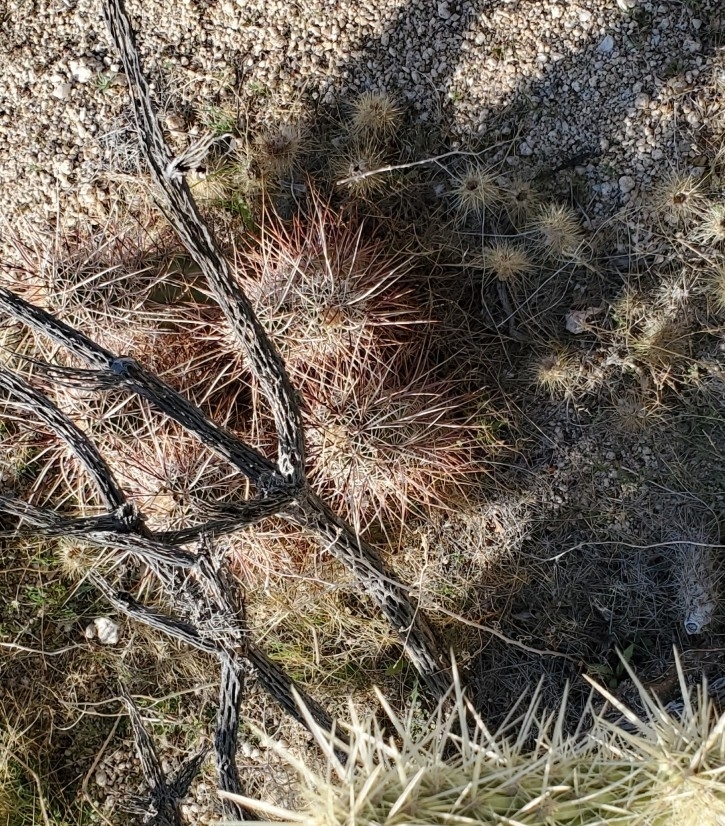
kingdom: Plantae
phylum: Tracheophyta
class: Magnoliopsida
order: Caryophyllales
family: Cactaceae
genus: Echinocereus
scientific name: Echinocereus engelmannii
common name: Engelmann's hedgehog cactus
